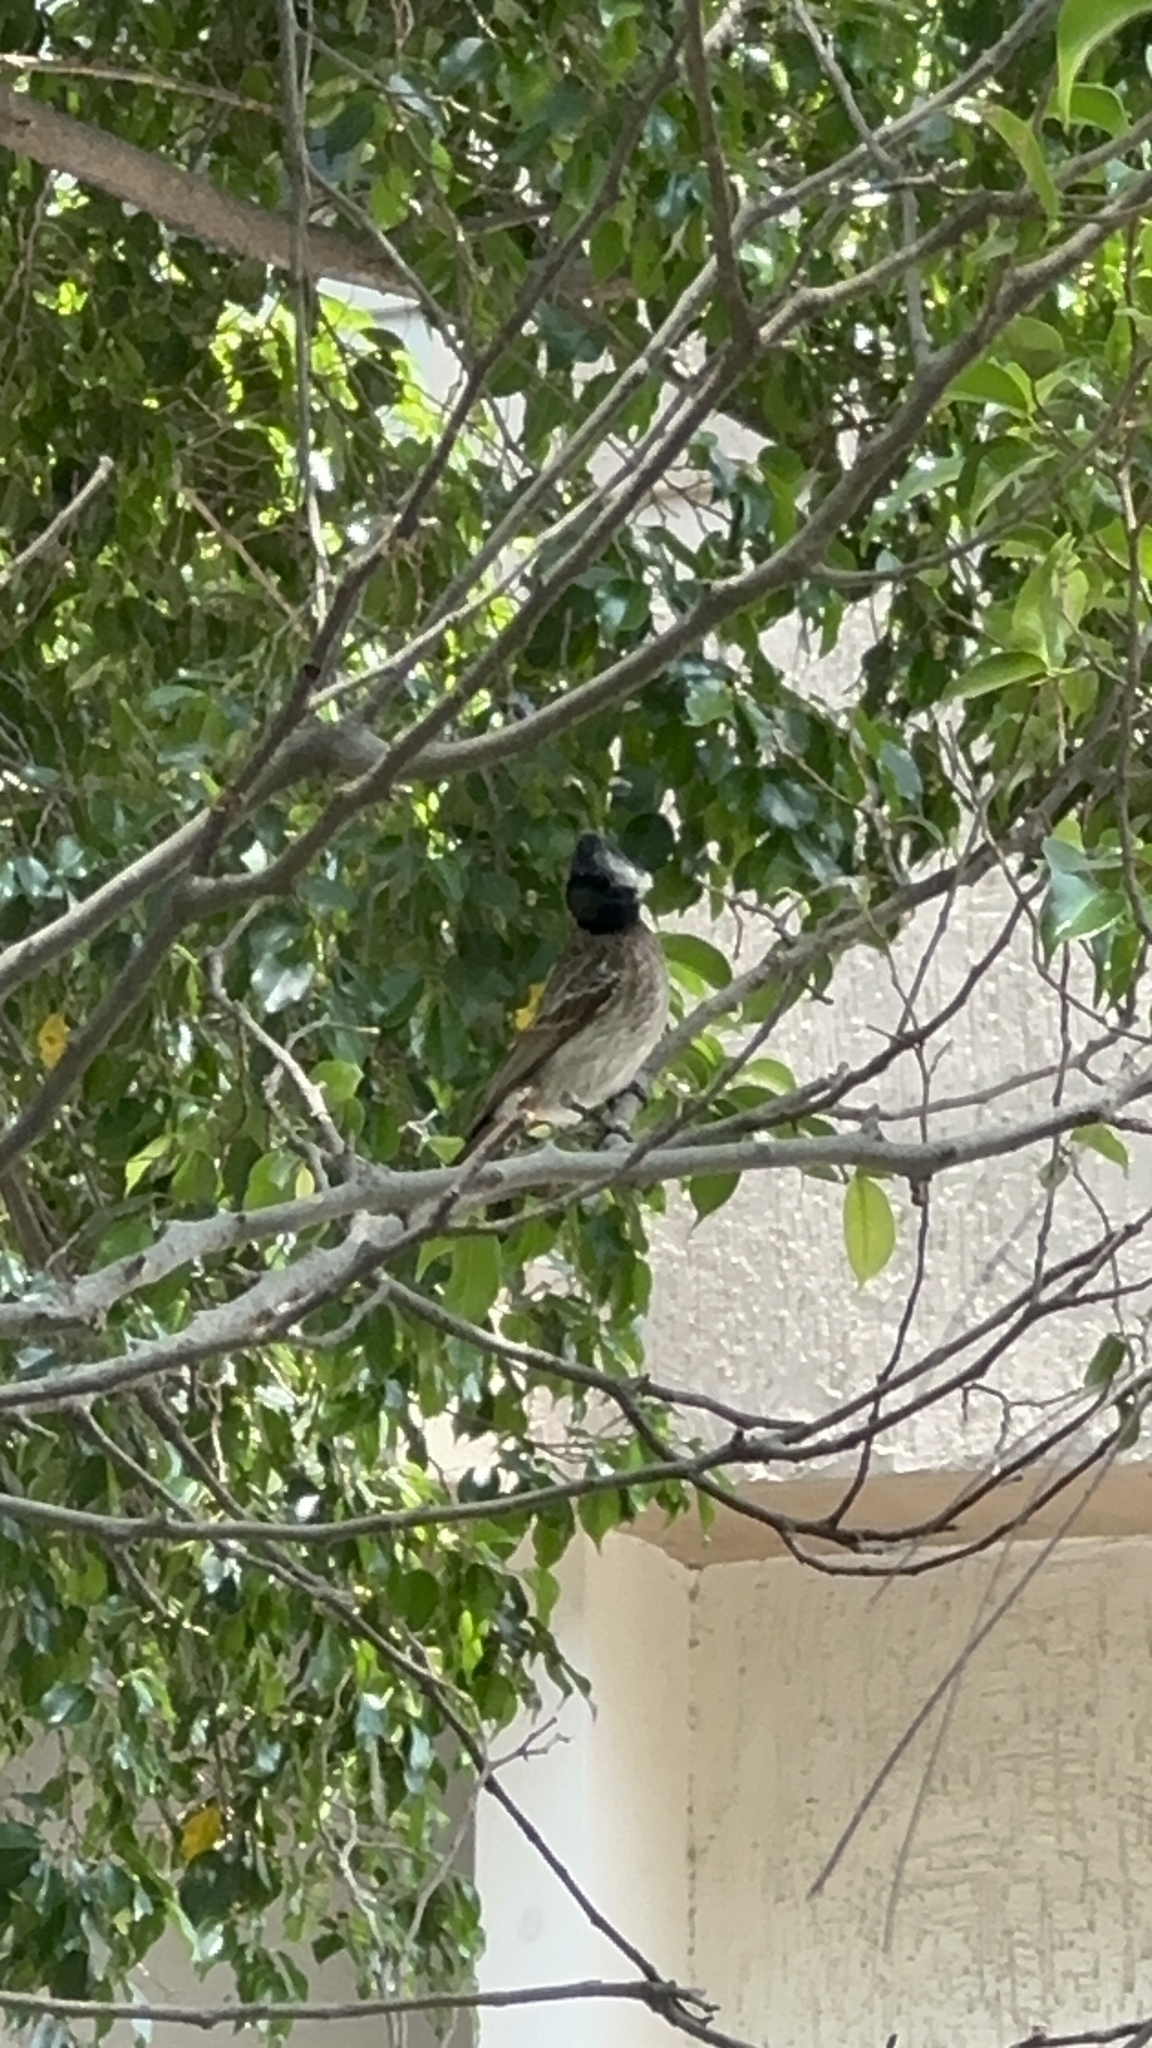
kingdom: Animalia
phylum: Chordata
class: Aves
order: Passeriformes
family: Pycnonotidae
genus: Pycnonotus
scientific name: Pycnonotus cafer
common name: Red-vented bulbul
